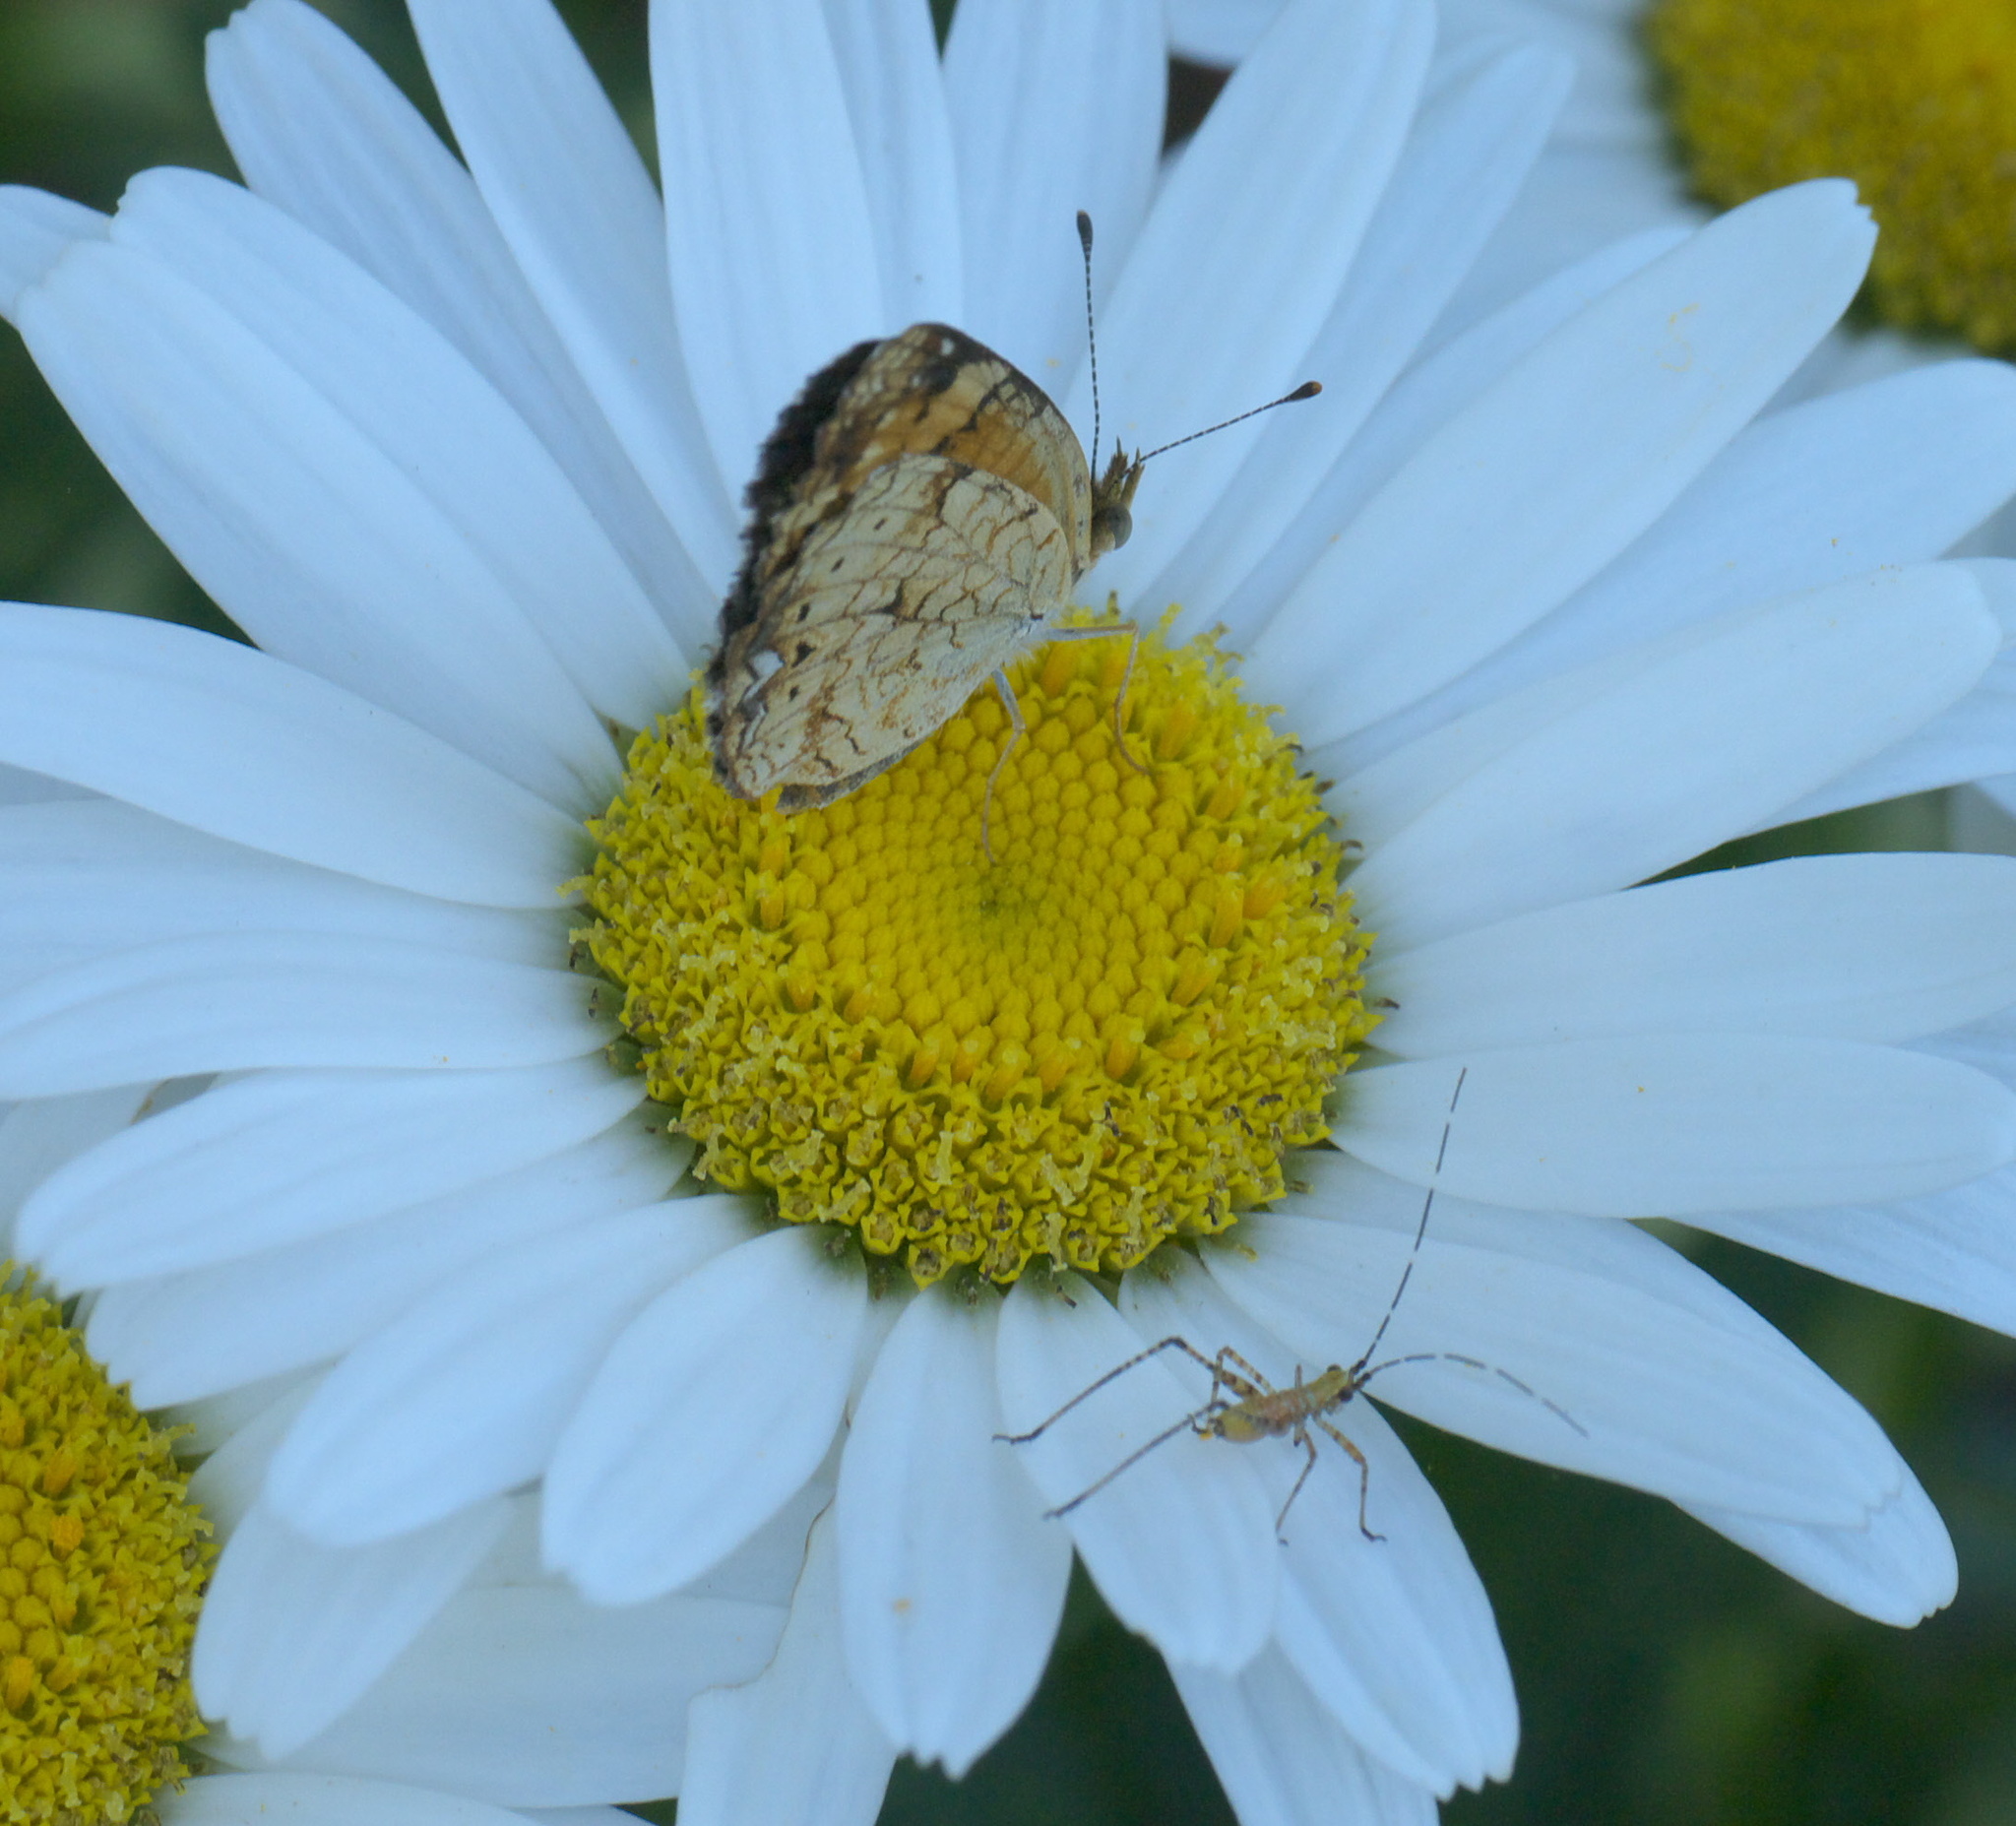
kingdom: Animalia
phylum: Arthropoda
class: Insecta
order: Lepidoptera
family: Nymphalidae
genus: Phyciodes
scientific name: Phyciodes tharos
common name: Pearl crescent
